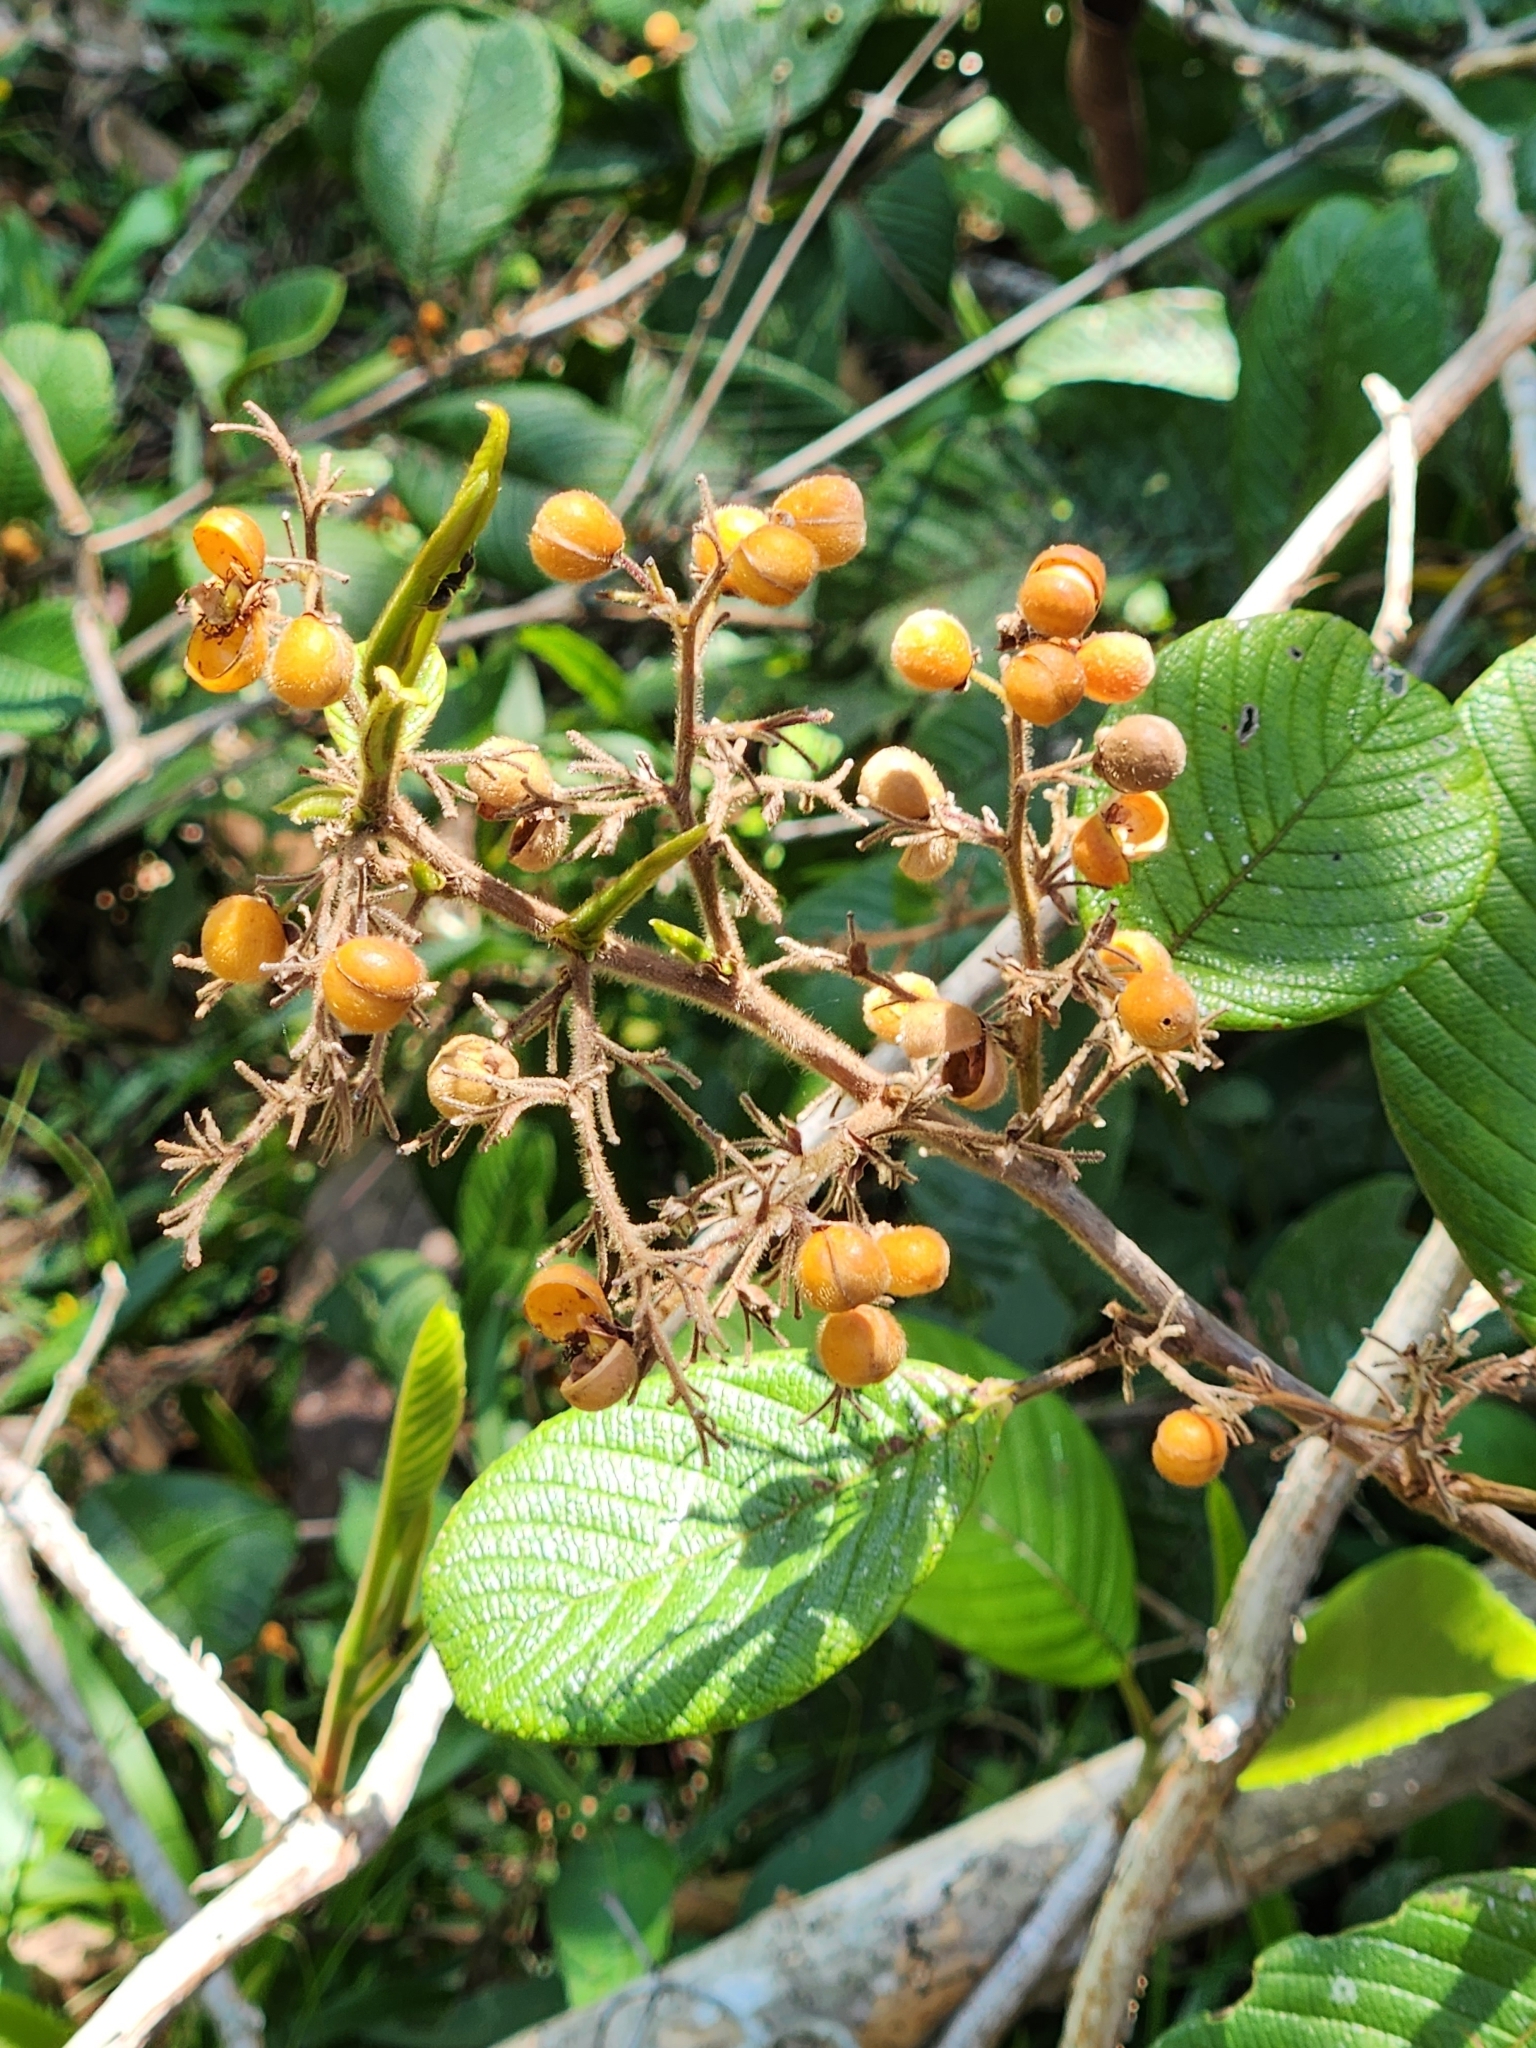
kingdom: Plantae
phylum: Tracheophyta
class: Magnoliopsida
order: Dilleniales
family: Dilleniaceae
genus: Davilla
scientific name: Davilla kunthii
